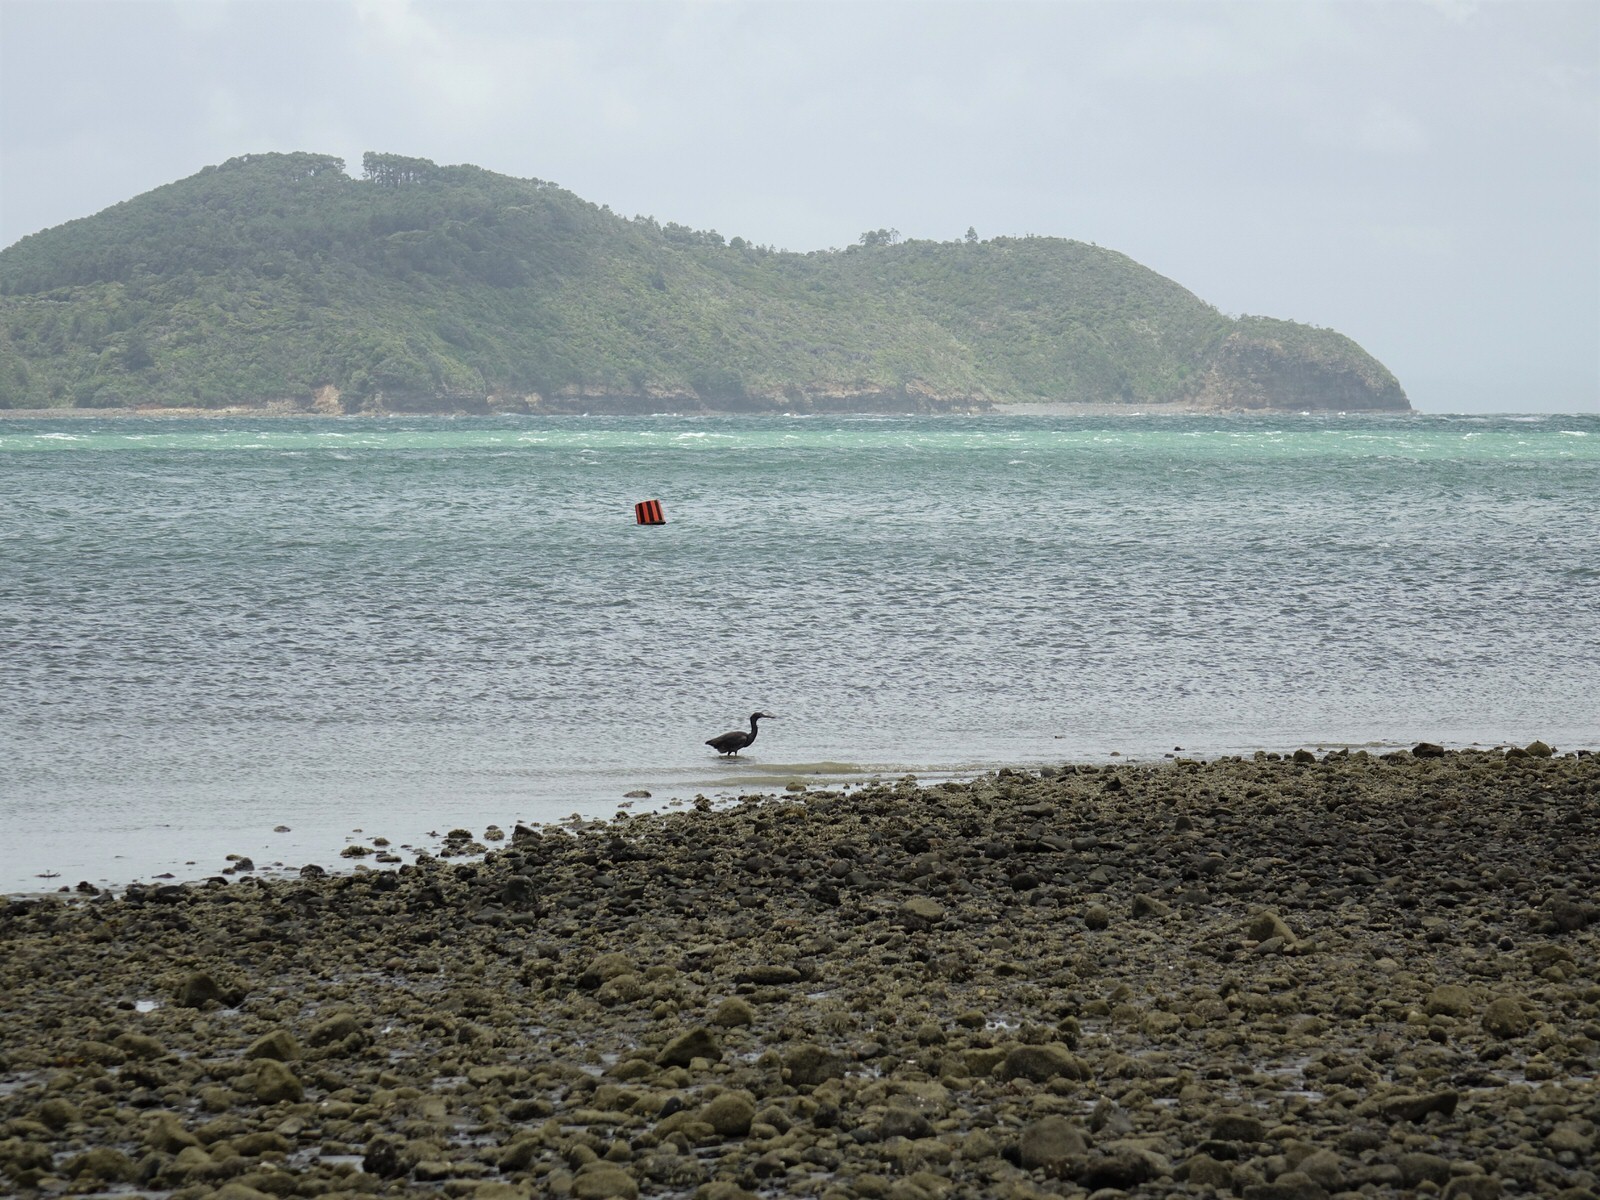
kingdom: Animalia
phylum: Chordata
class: Aves
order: Pelecaniformes
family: Ardeidae
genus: Egretta
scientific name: Egretta sacra
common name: Pacific reef heron
